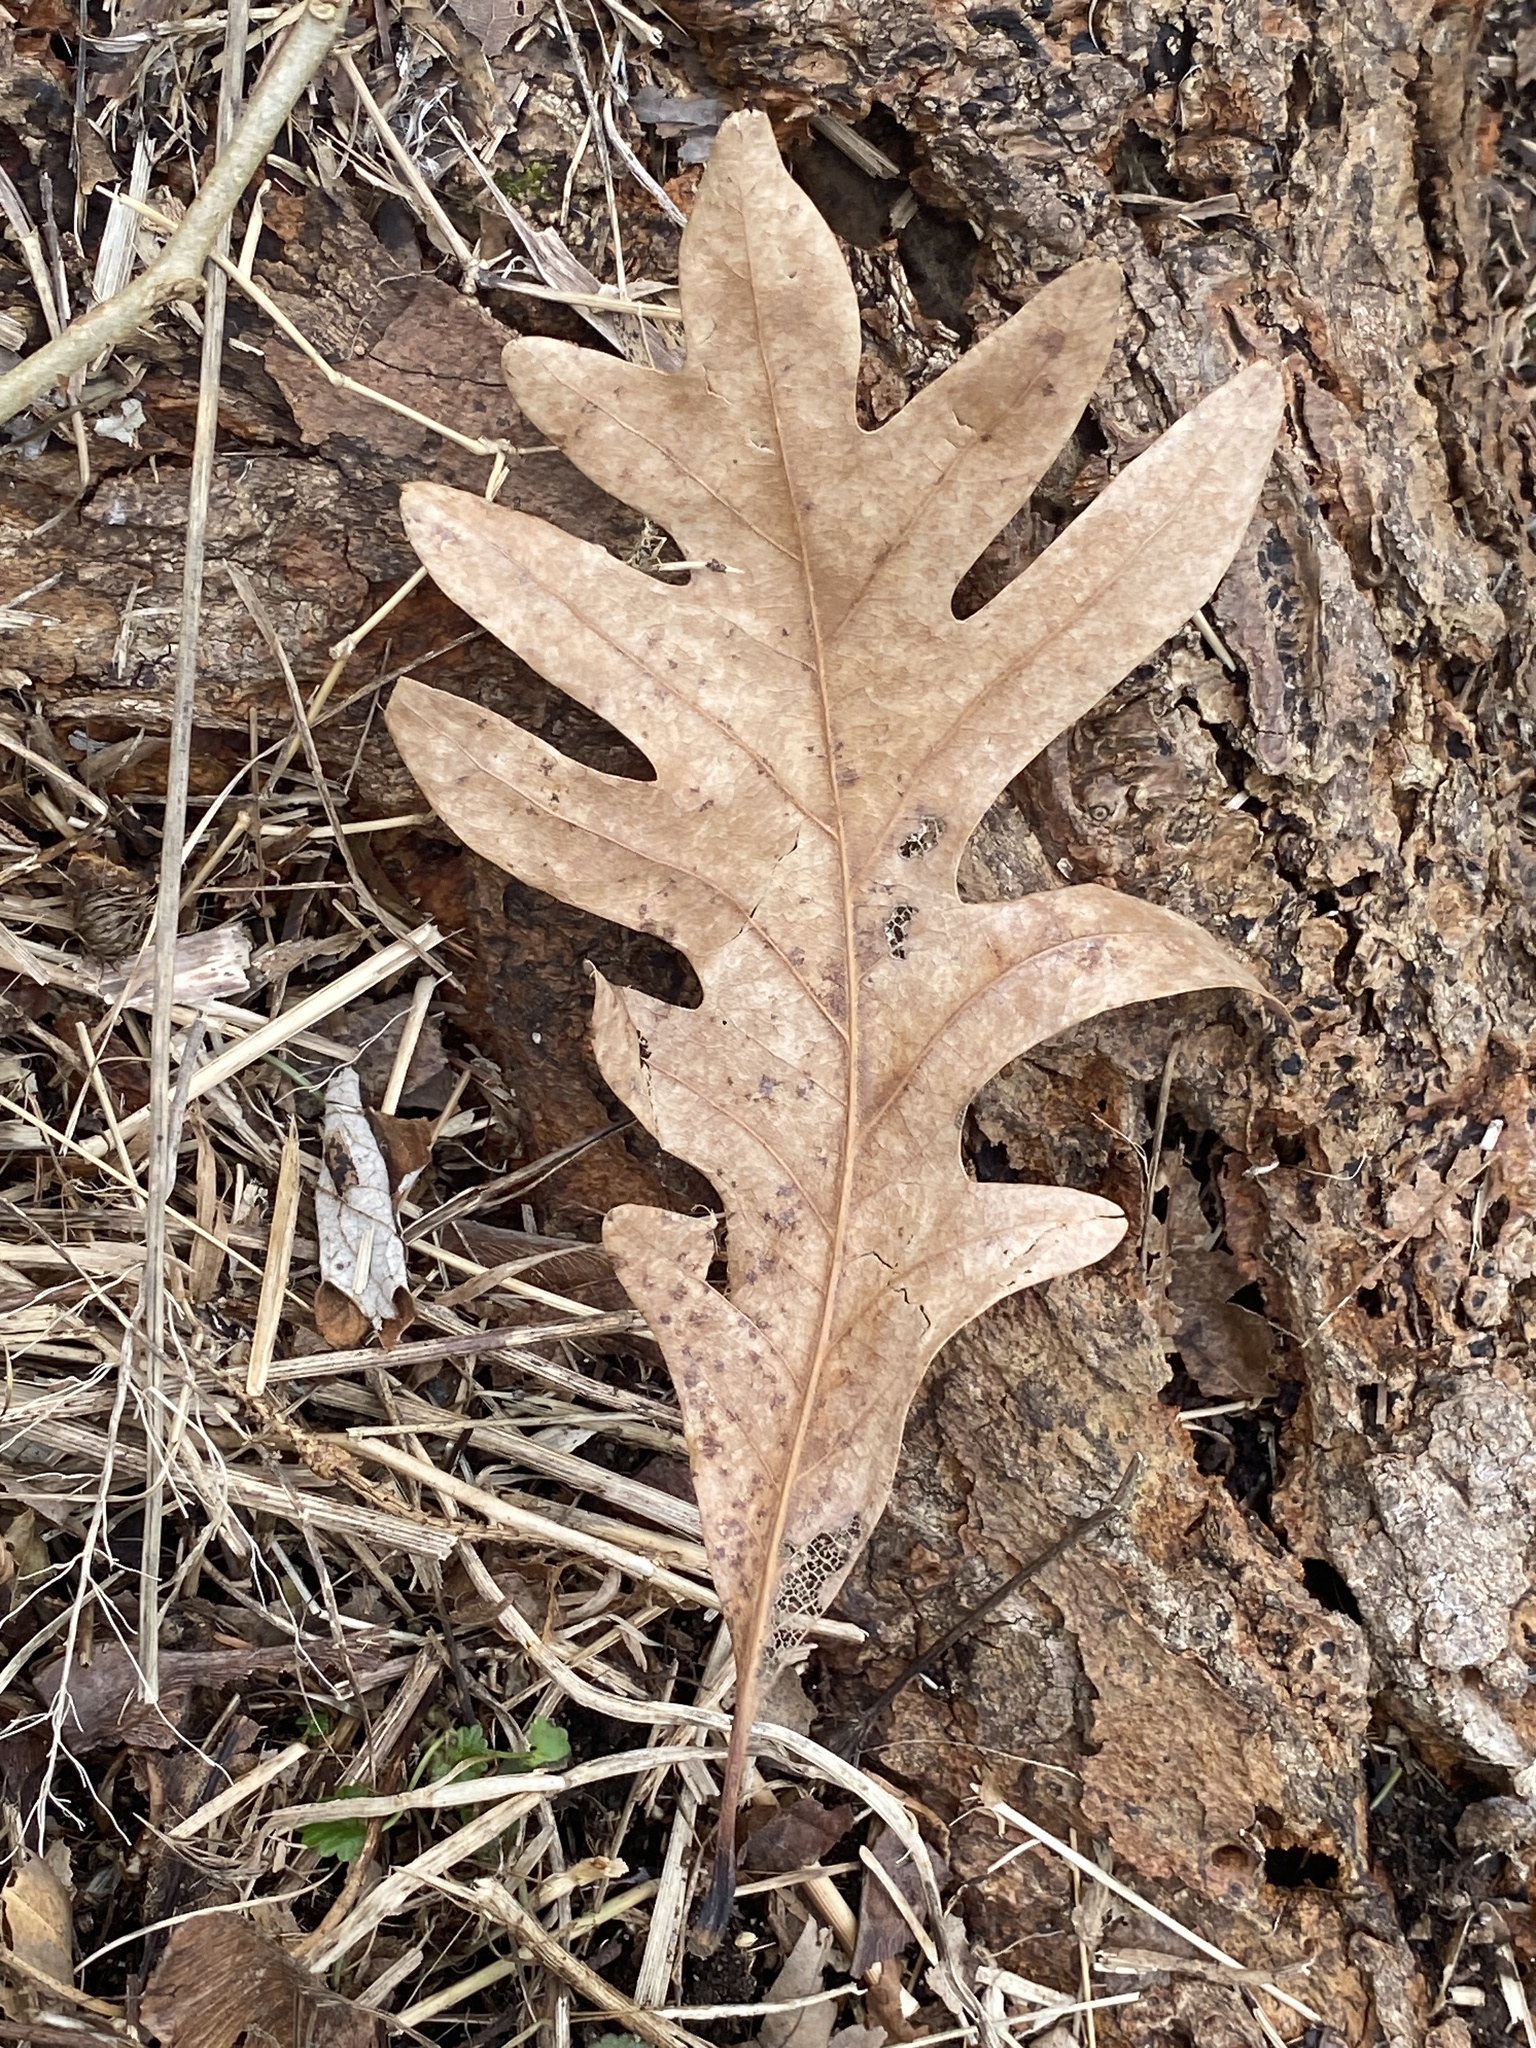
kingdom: Plantae
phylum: Tracheophyta
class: Magnoliopsida
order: Fagales
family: Fagaceae
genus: Quercus
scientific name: Quercus alba
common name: White oak
